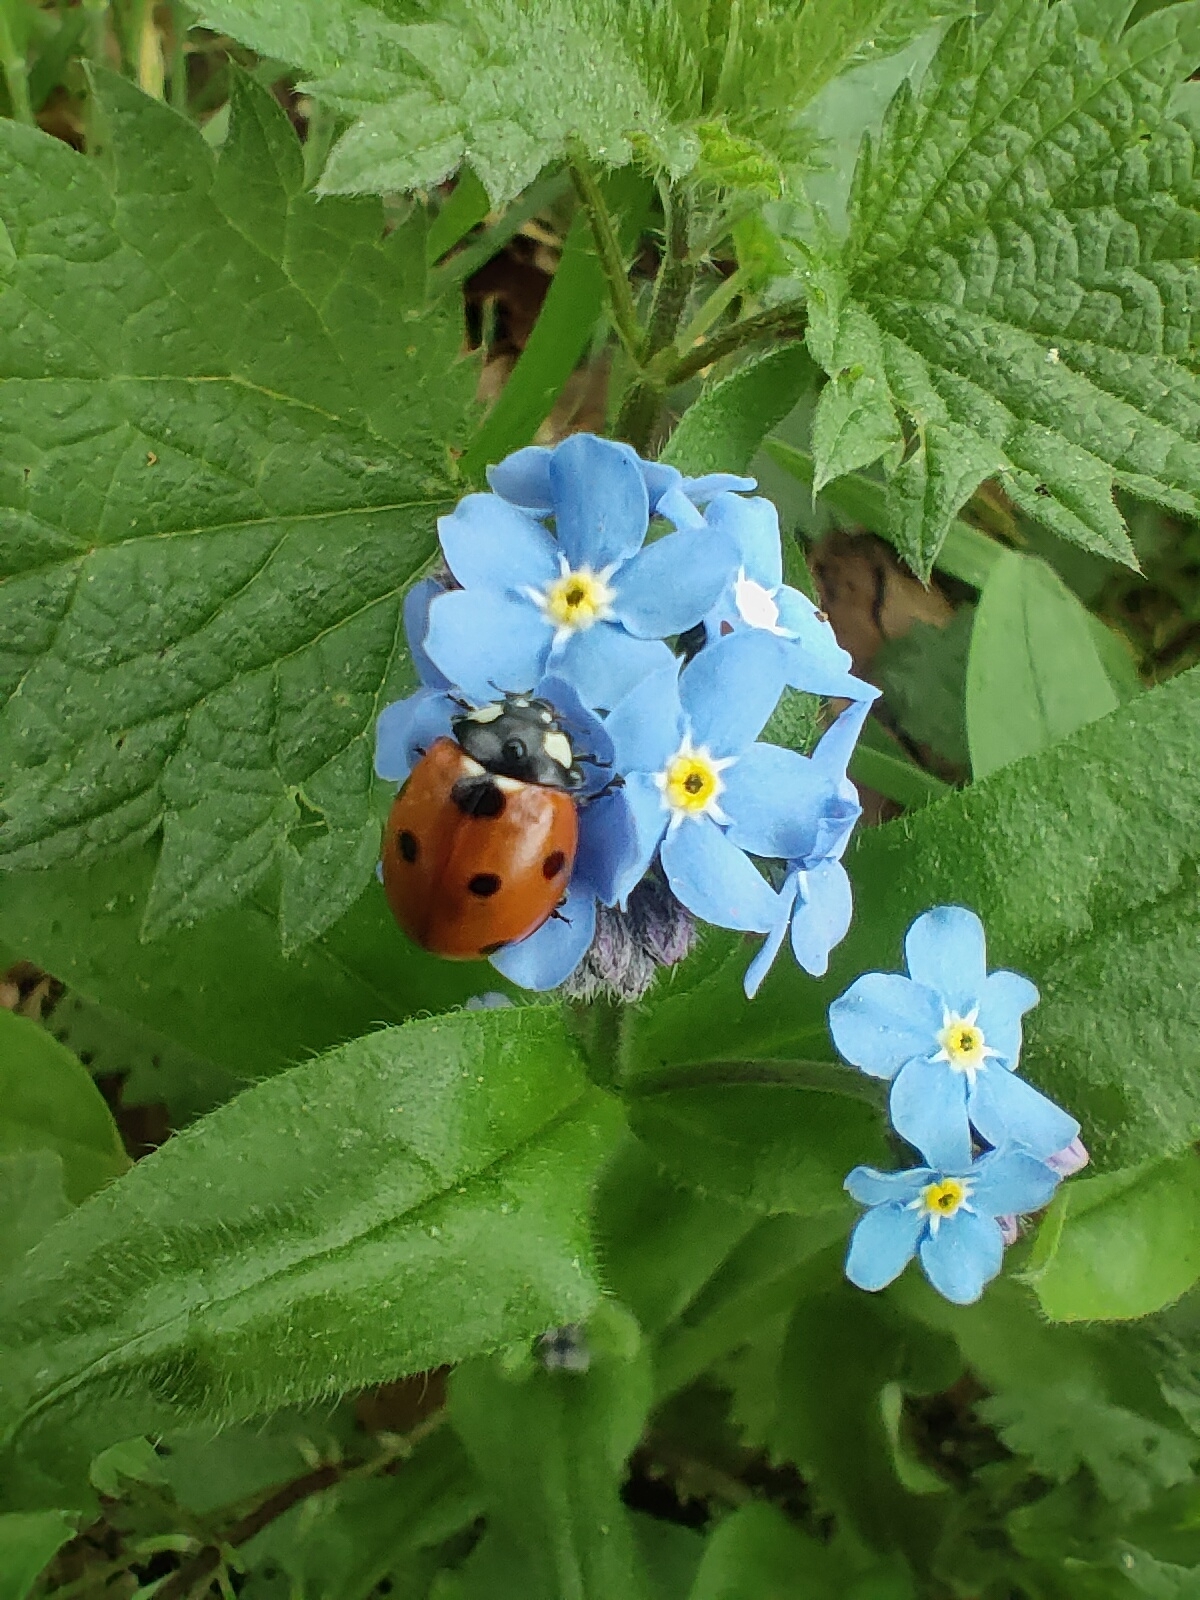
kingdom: Animalia
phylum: Arthropoda
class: Insecta
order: Coleoptera
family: Coccinellidae
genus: Coccinella
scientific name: Coccinella septempunctata
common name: Sevenspotted lady beetle
